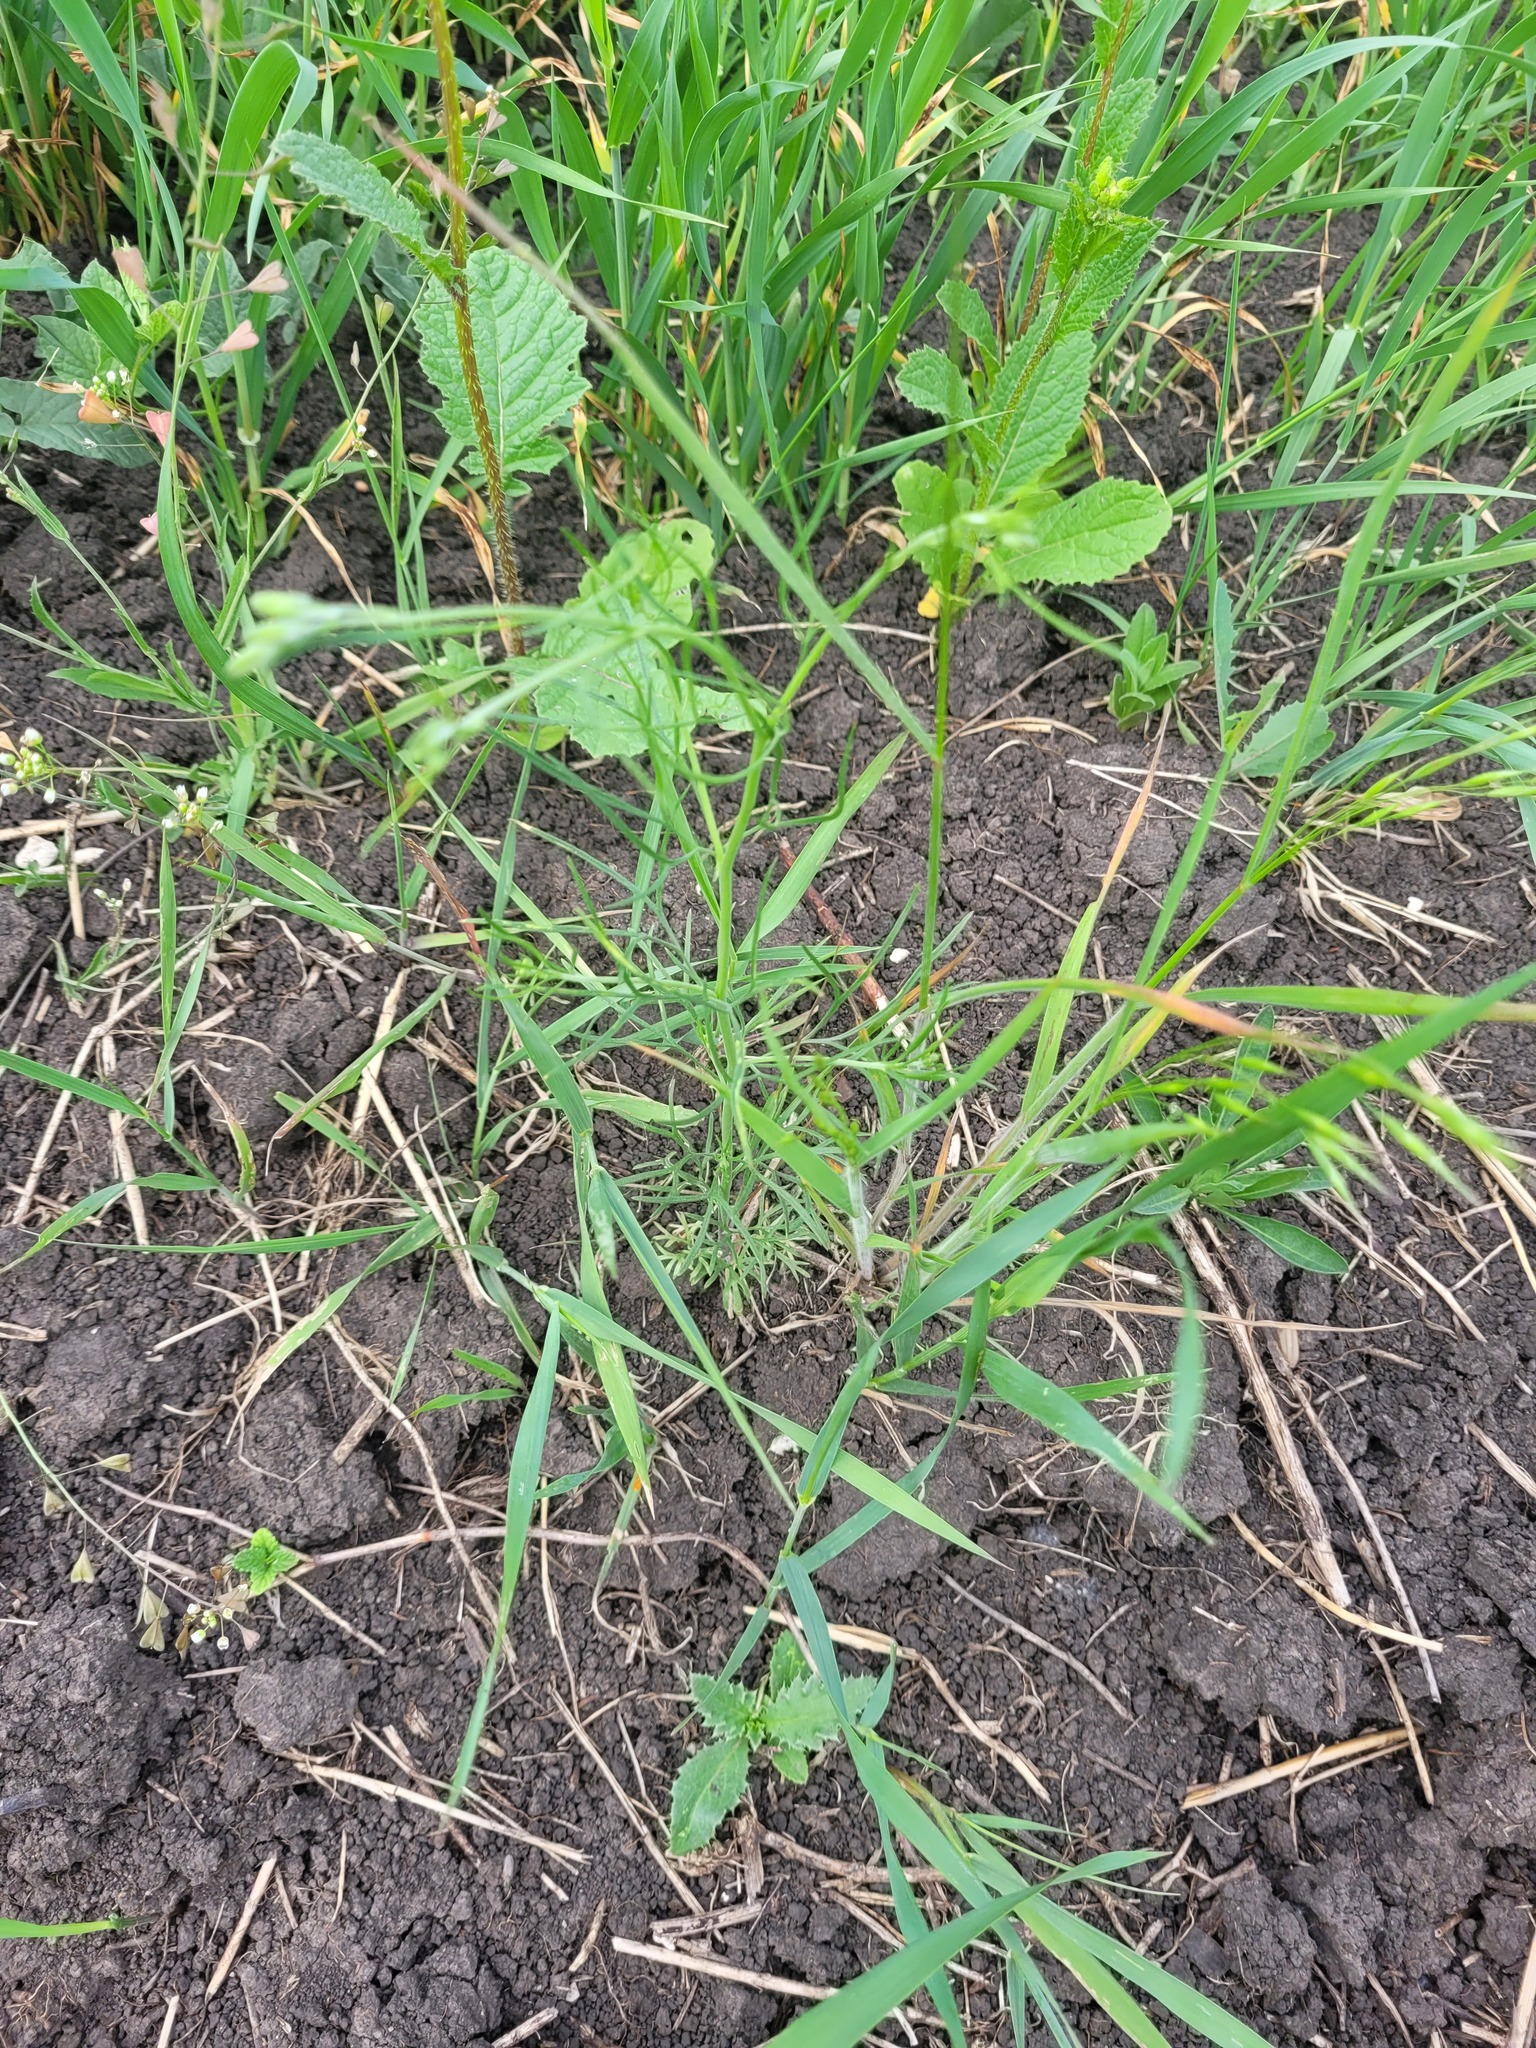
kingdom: Plantae
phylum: Tracheophyta
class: Magnoliopsida
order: Ranunculales
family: Ranunculaceae
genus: Delphinium
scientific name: Delphinium consolida
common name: Branching larkspur
